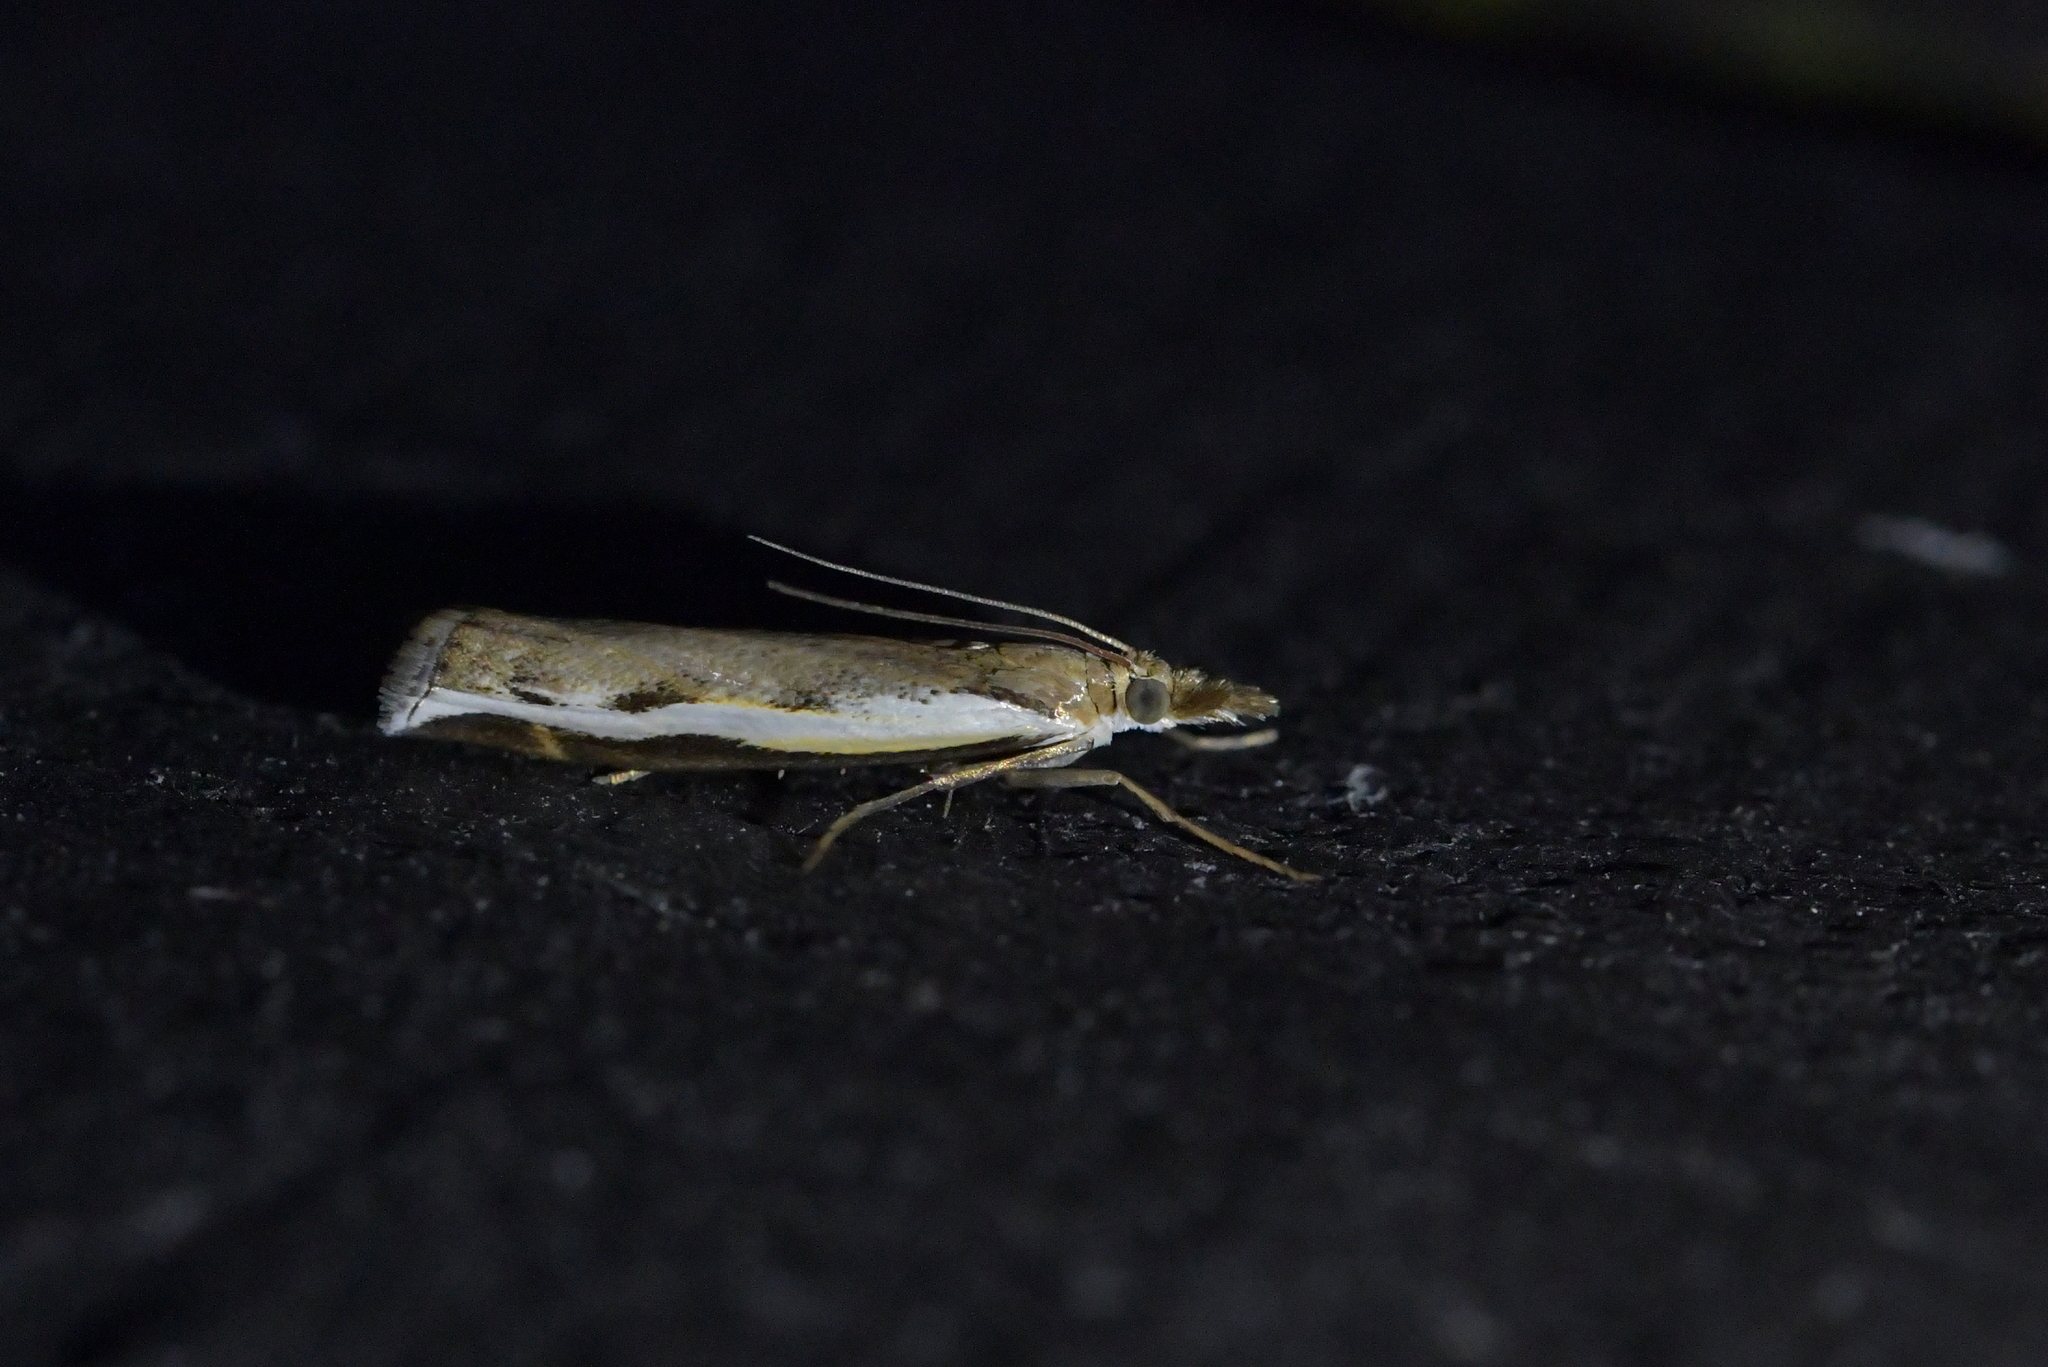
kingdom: Animalia
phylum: Arthropoda
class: Insecta
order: Lepidoptera
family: Crambidae
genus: Orocrambus
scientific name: Orocrambus flexuosellus
